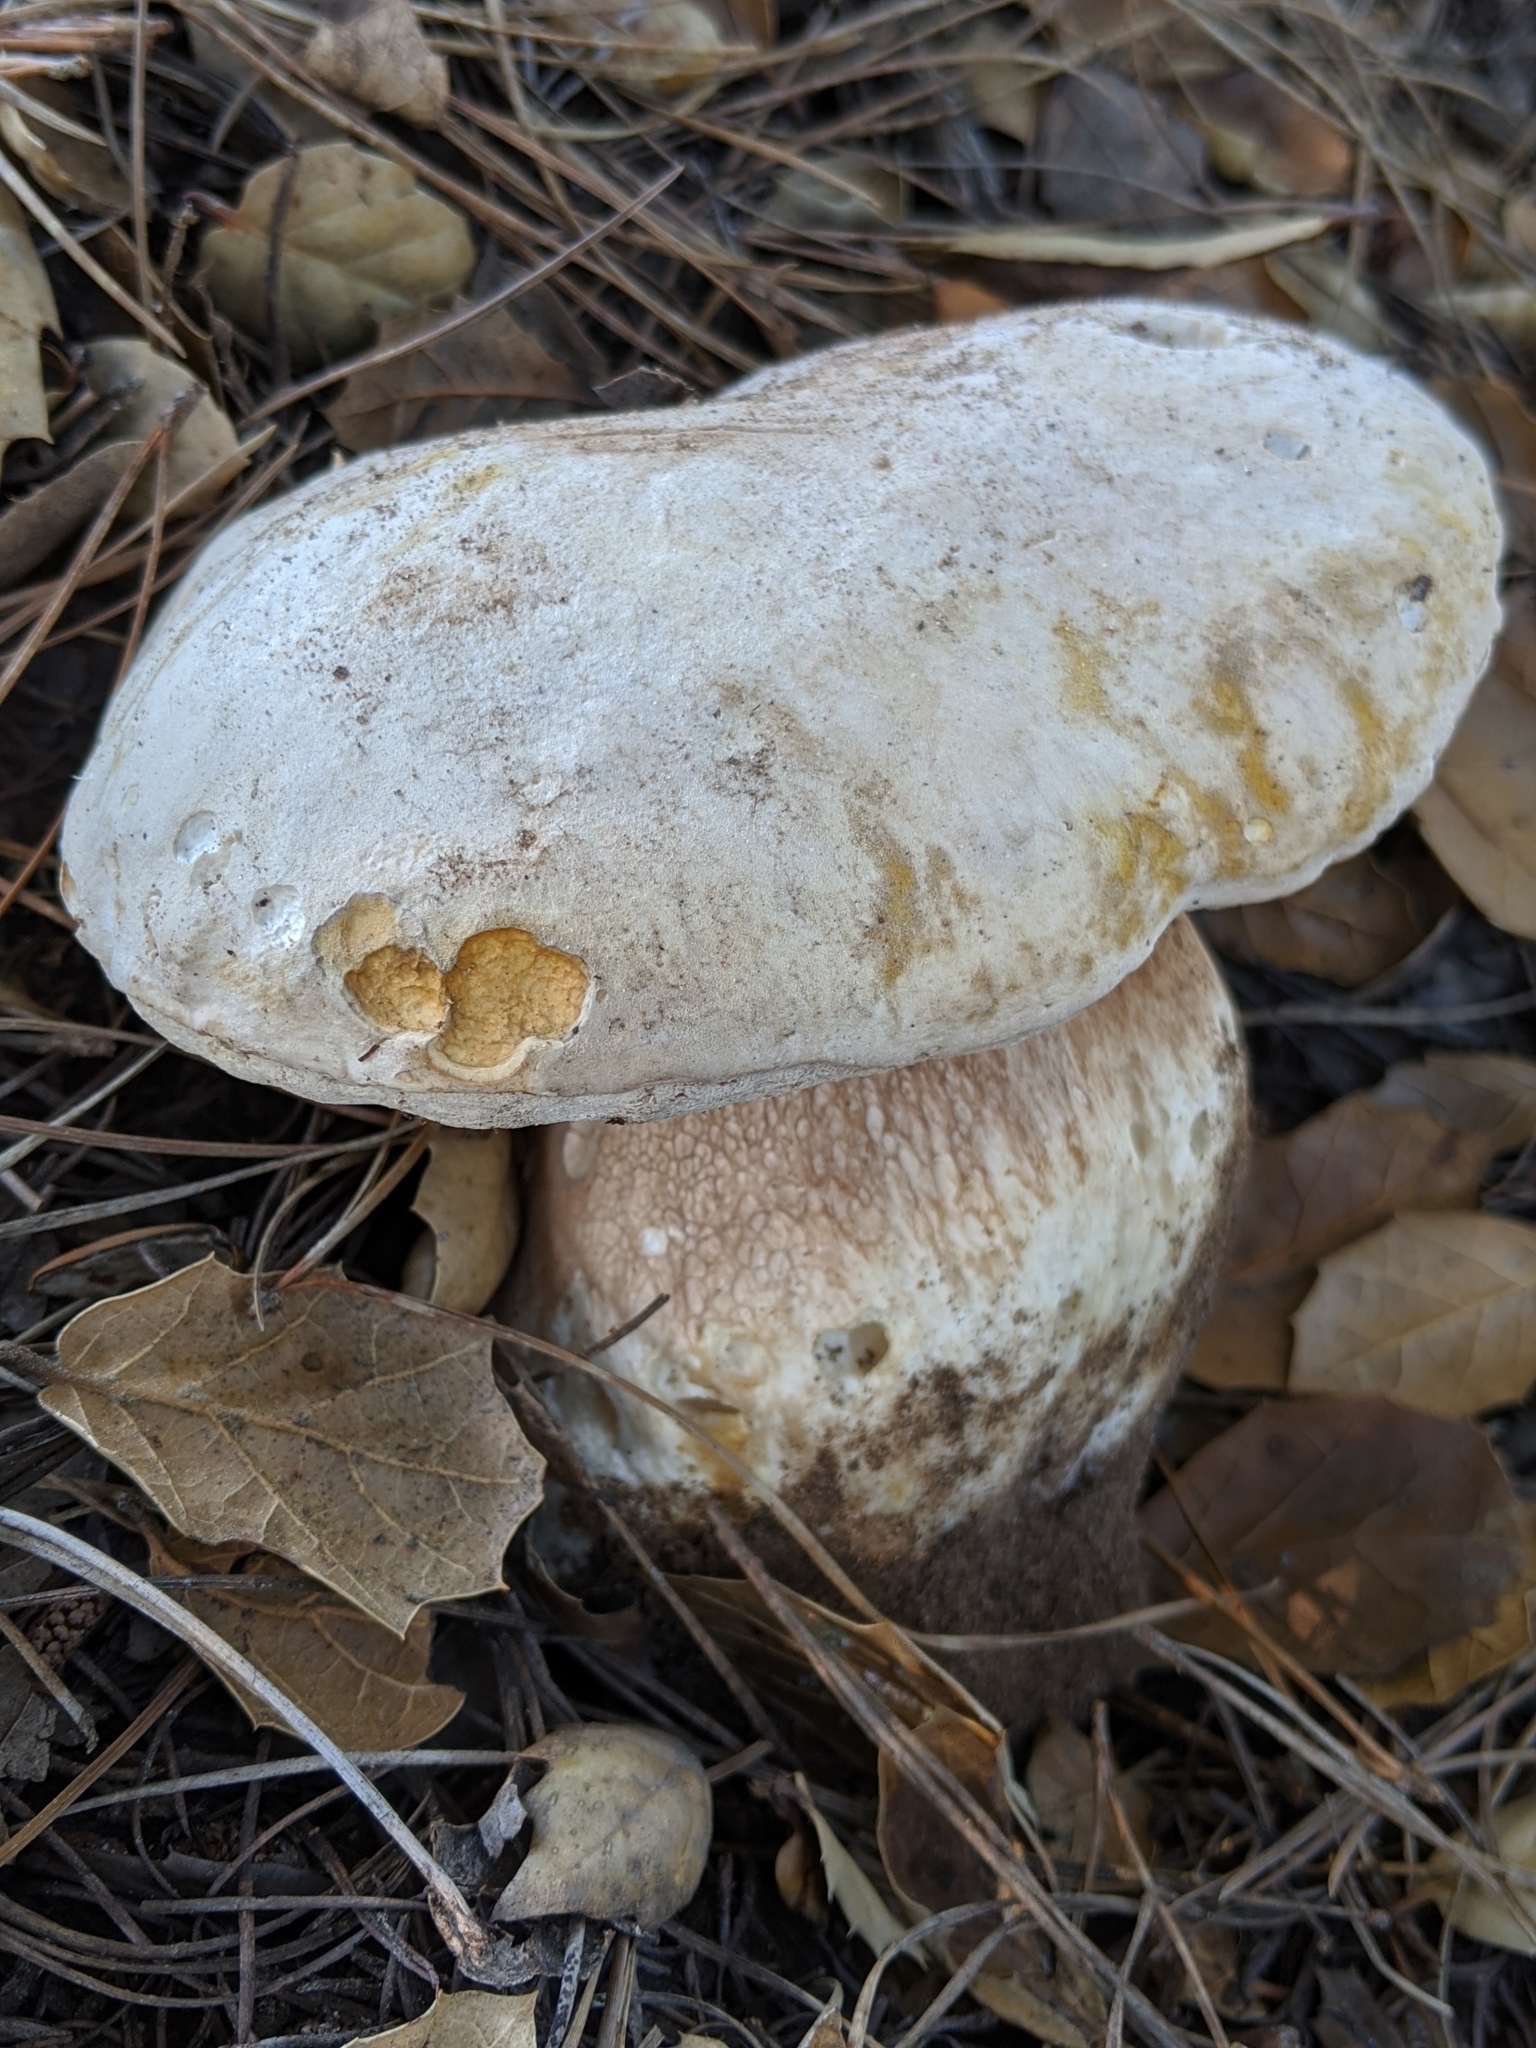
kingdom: Fungi
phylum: Basidiomycota
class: Agaricomycetes
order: Boletales
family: Boletaceae
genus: Boletus
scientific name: Boletus barrowsii
